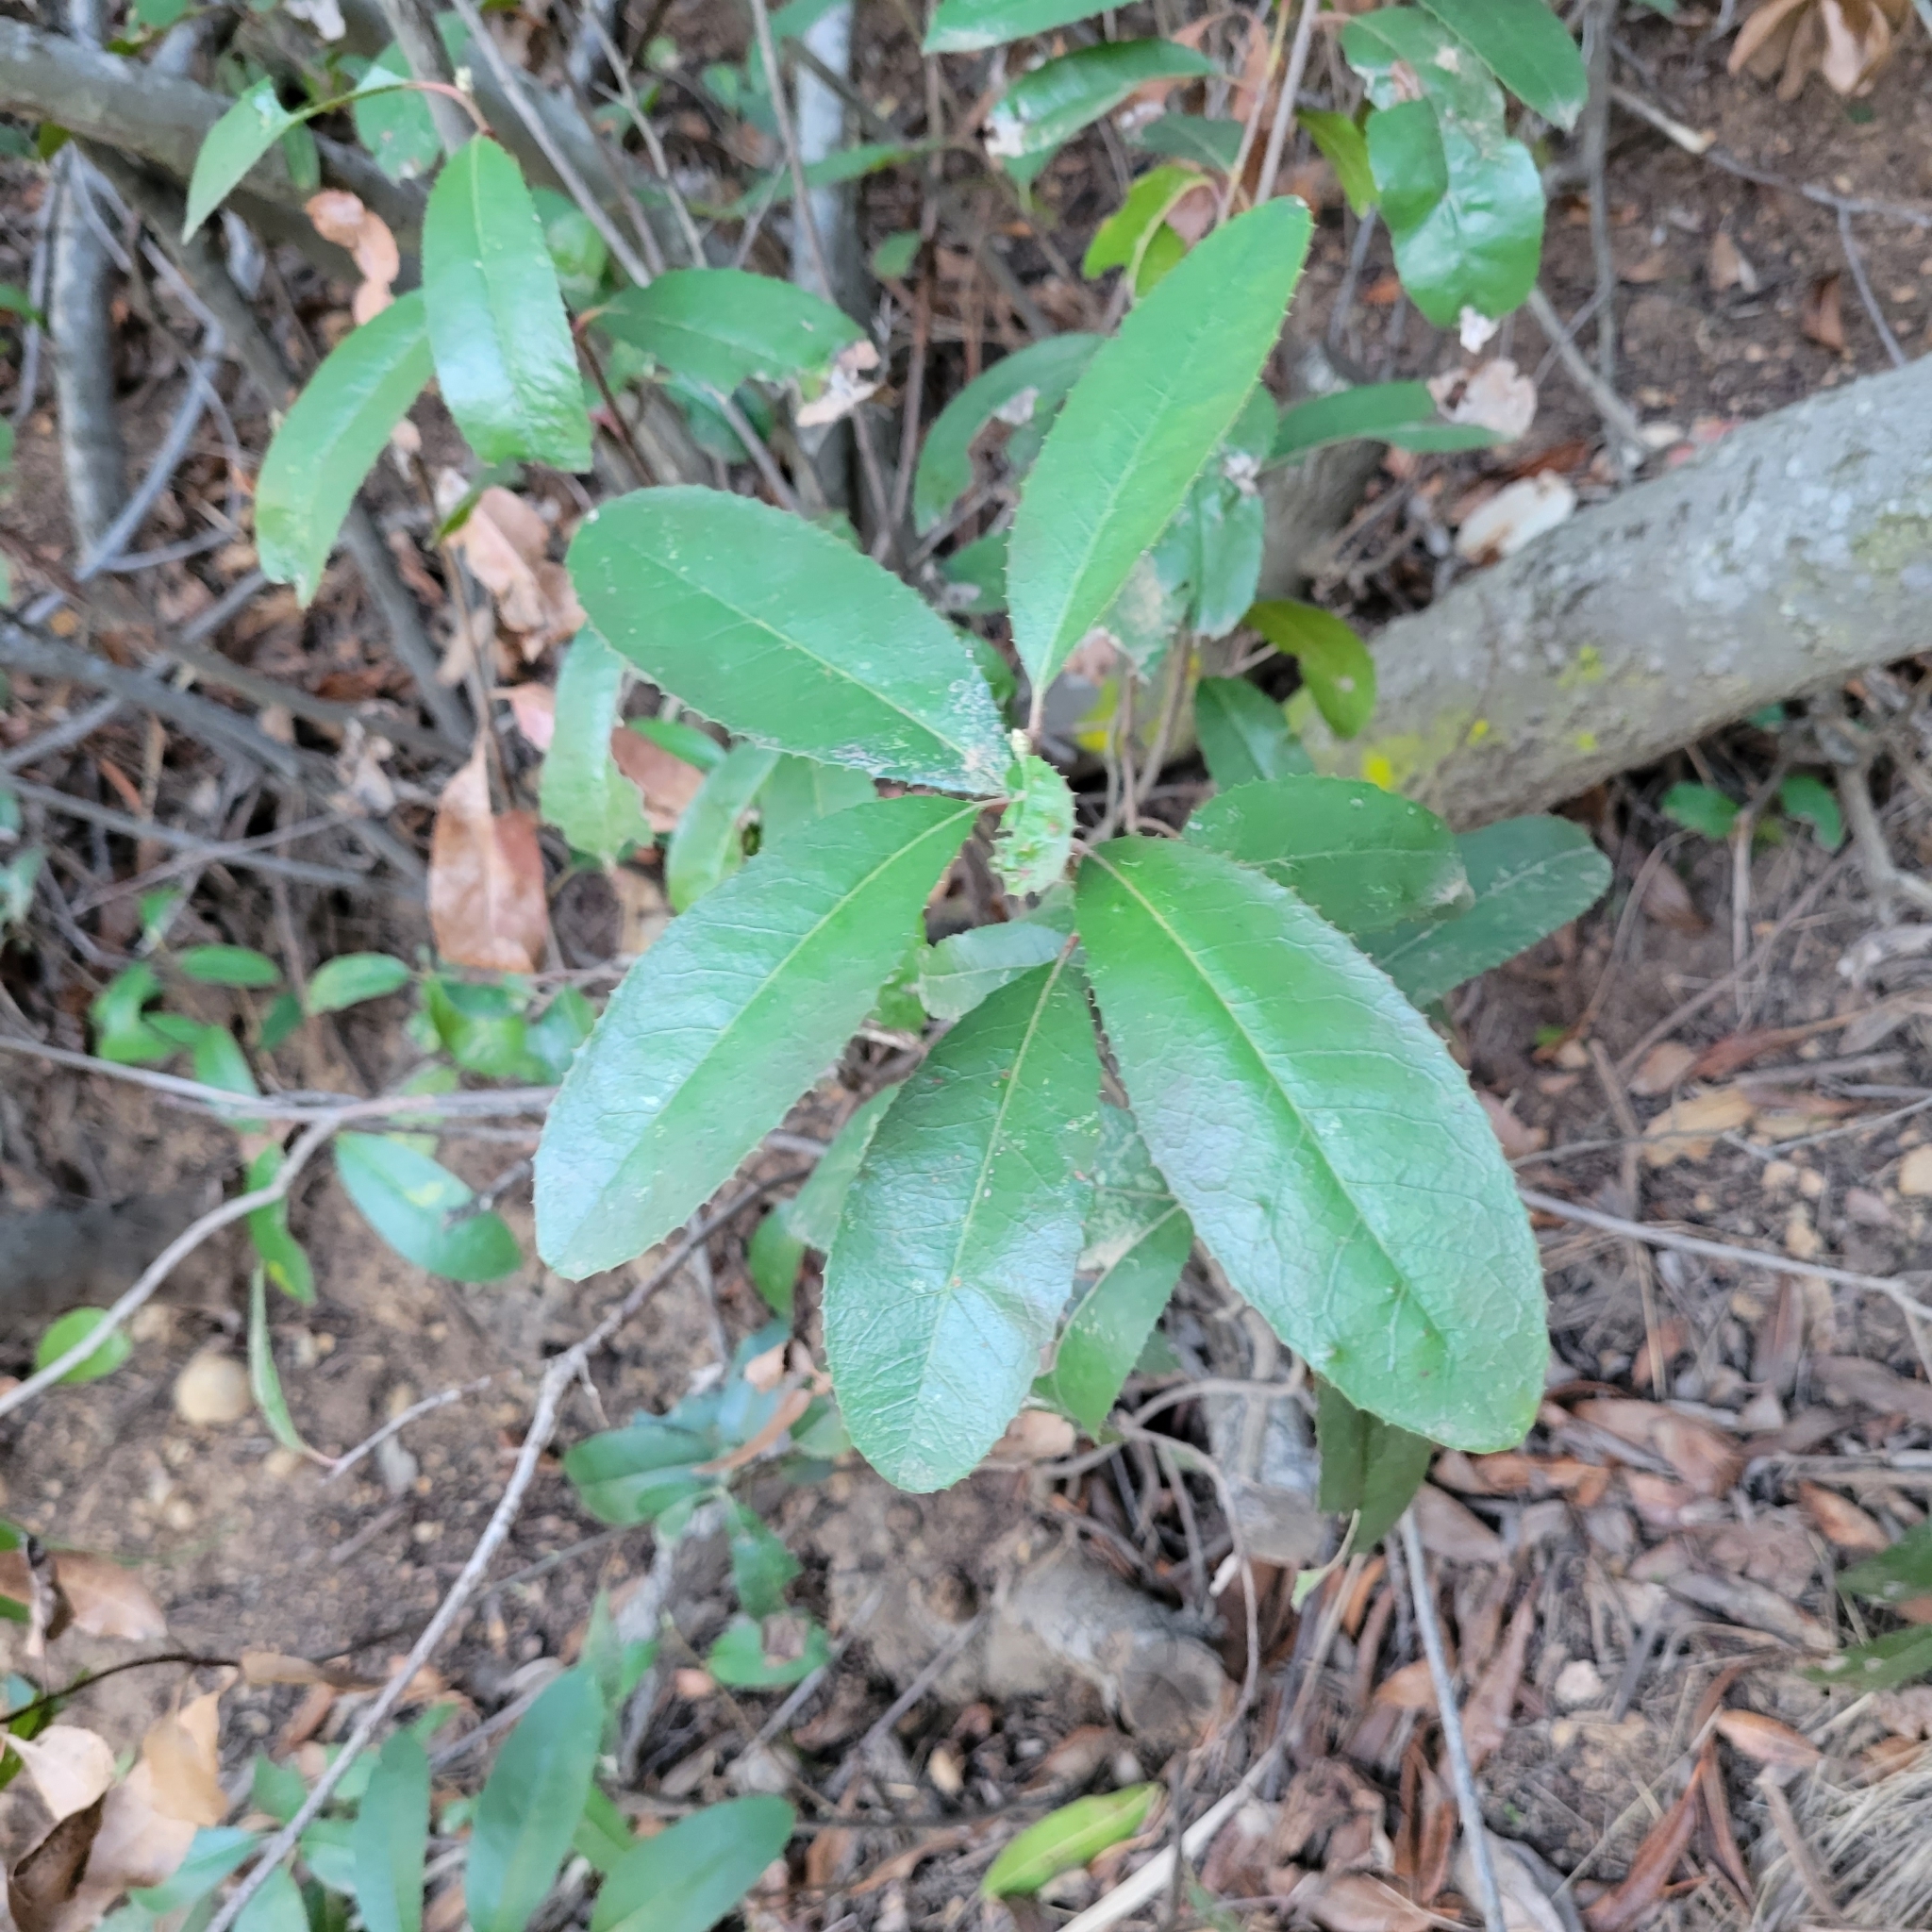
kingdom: Plantae
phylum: Tracheophyta
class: Magnoliopsida
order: Rosales
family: Rosaceae
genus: Heteromeles
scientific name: Heteromeles arbutifolia
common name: California-holly
